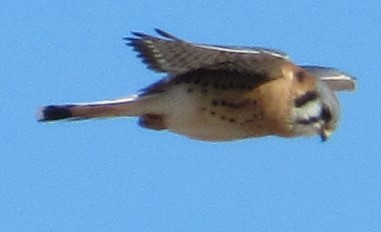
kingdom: Animalia
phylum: Chordata
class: Aves
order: Falconiformes
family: Falconidae
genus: Falco
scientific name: Falco sparverius
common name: American kestrel
